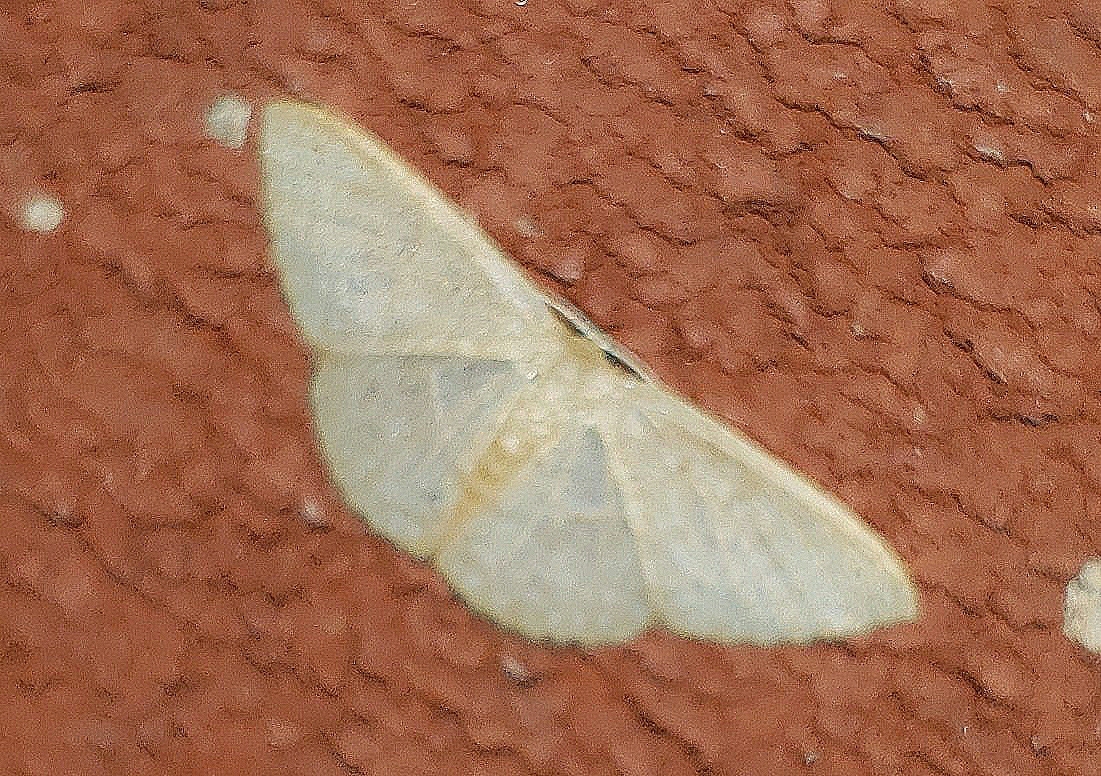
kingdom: Animalia
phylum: Arthropoda
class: Insecta
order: Lepidoptera
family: Geometridae
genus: Pleuroprucha
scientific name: Pleuroprucha insulsaria
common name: Common tan wave
